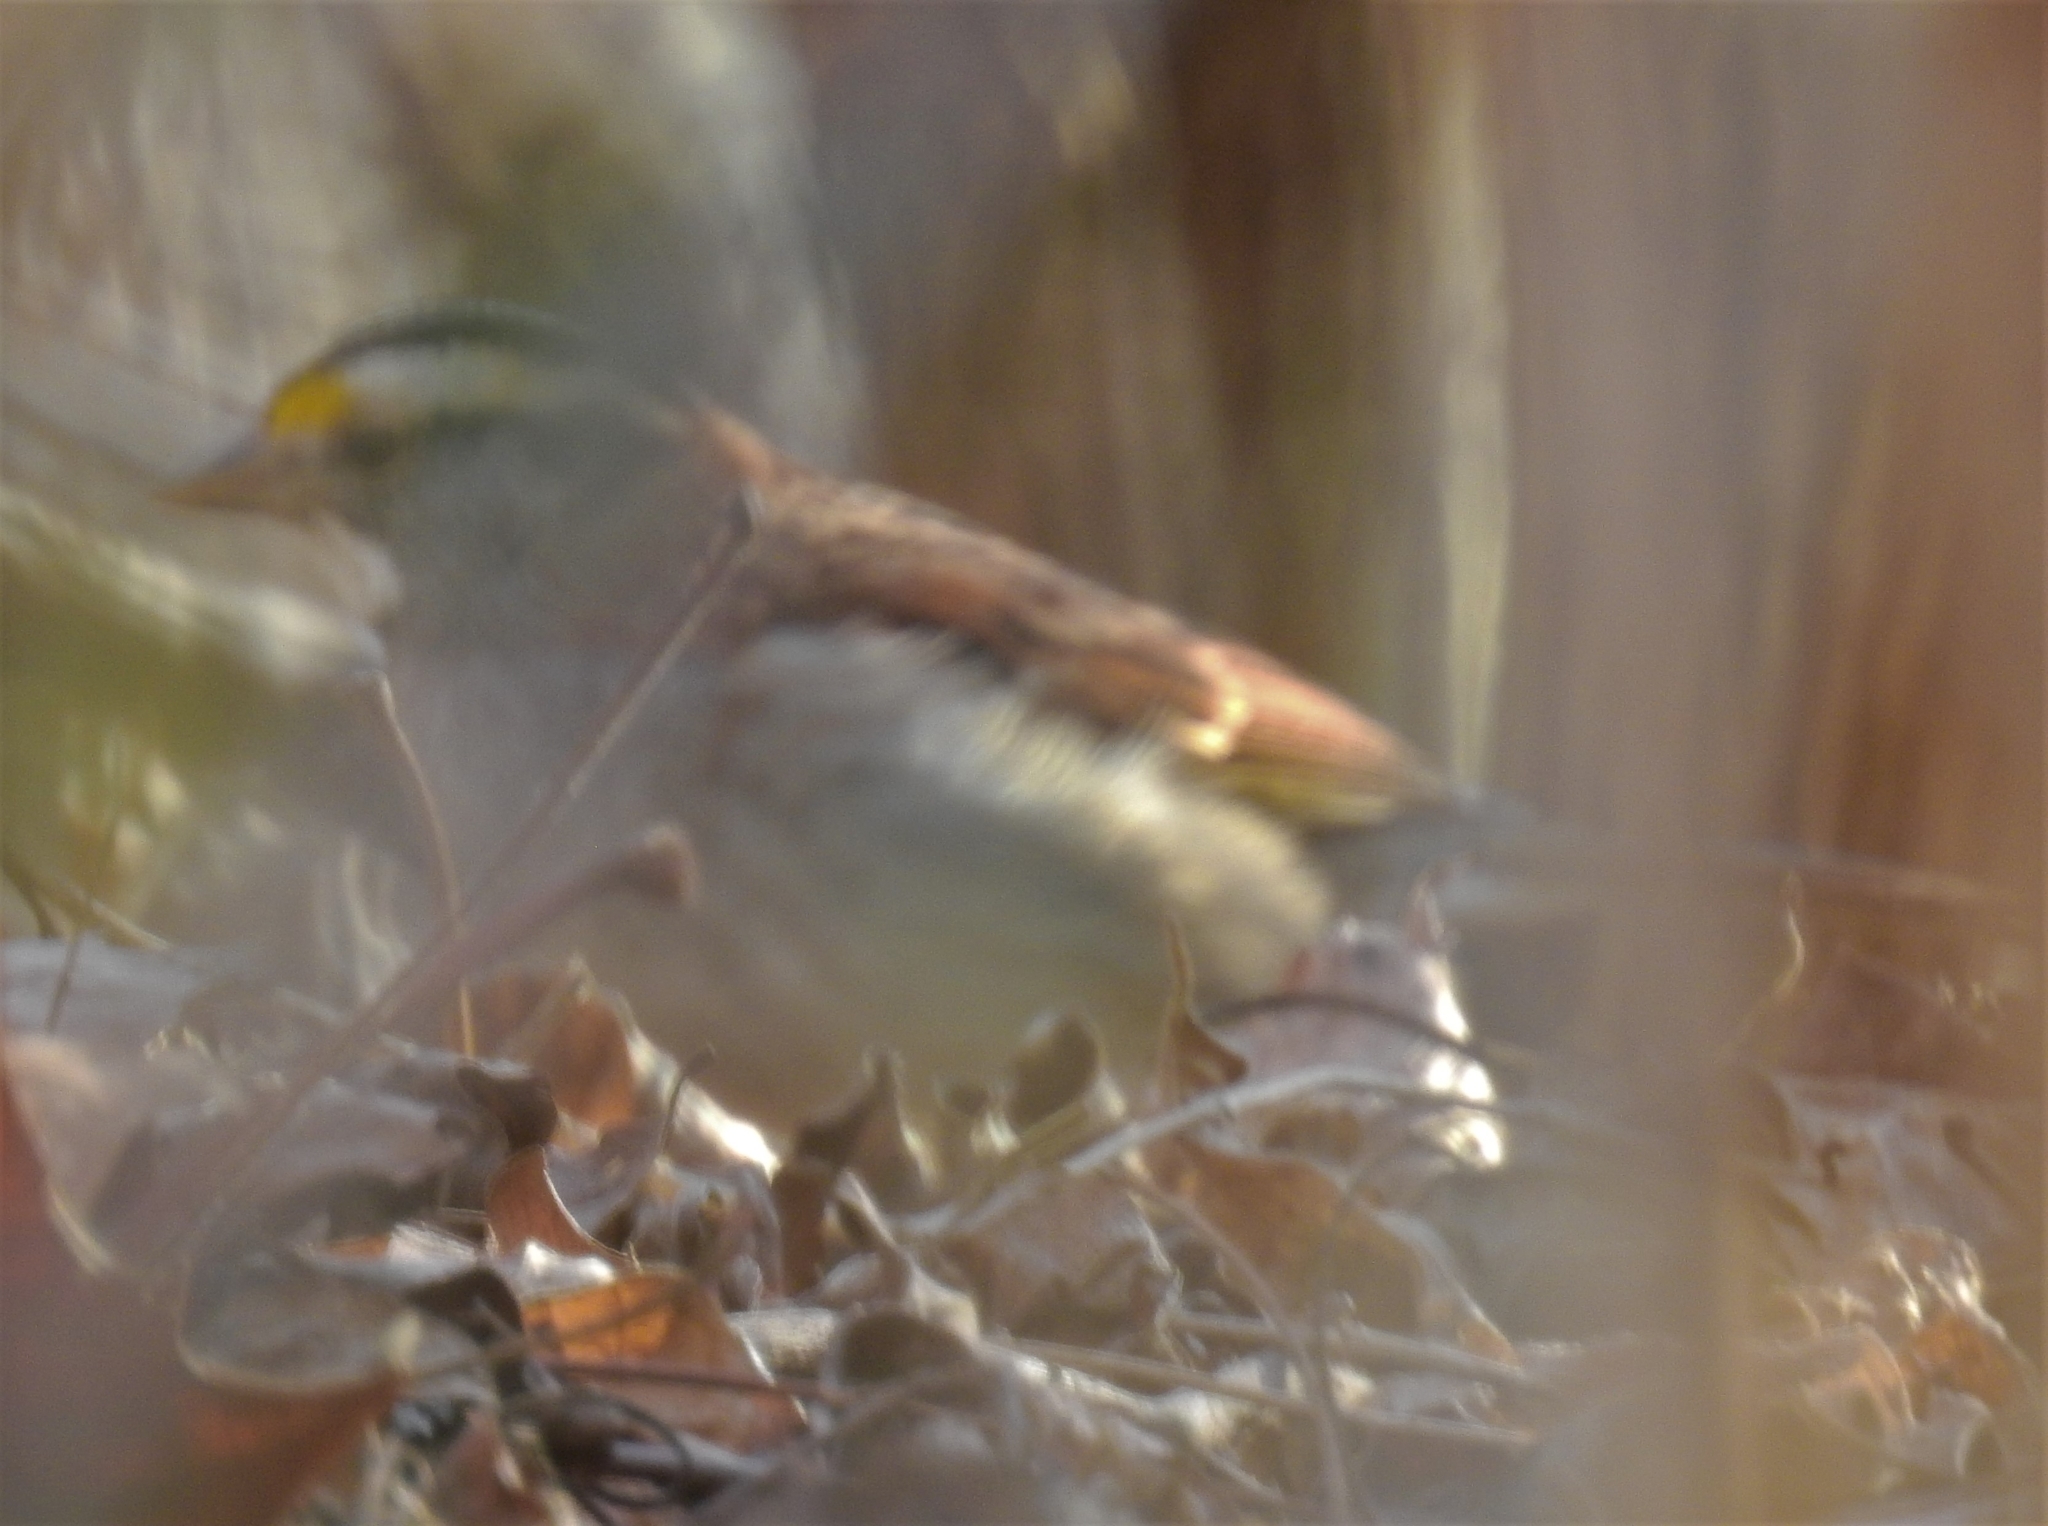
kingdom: Animalia
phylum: Chordata
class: Aves
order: Passeriformes
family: Passerellidae
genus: Zonotrichia
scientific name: Zonotrichia albicollis
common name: White-throated sparrow
